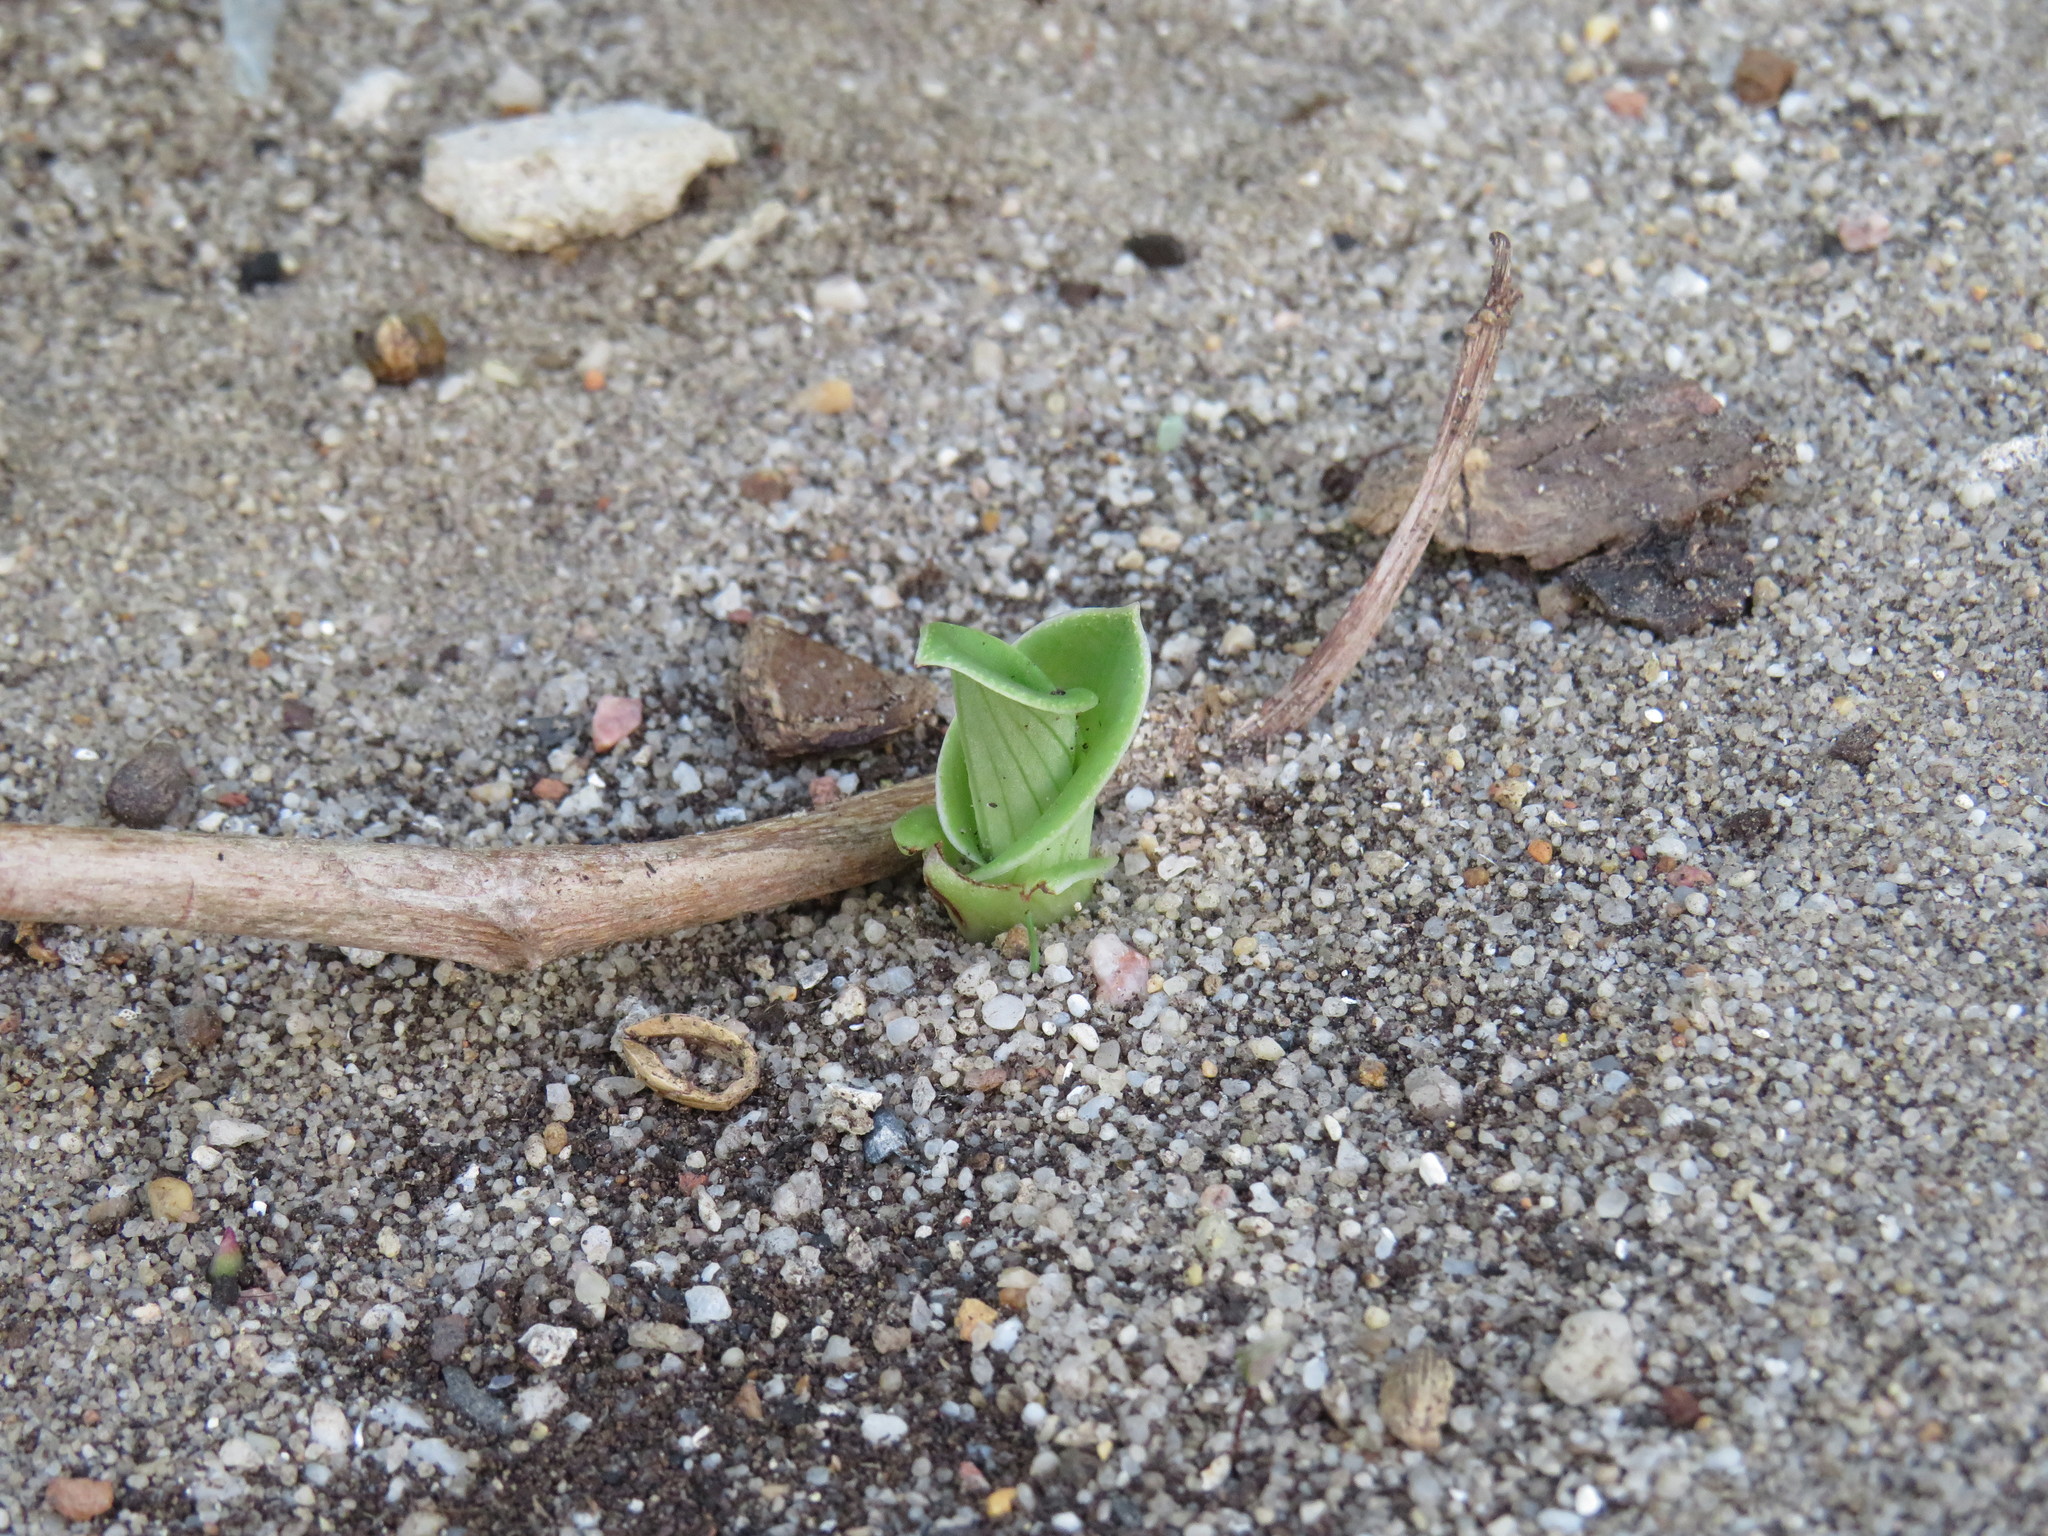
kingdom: Plantae
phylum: Tracheophyta
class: Liliopsida
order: Asparagales
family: Orchidaceae
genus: Satyrium
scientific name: Satyrium odorum
